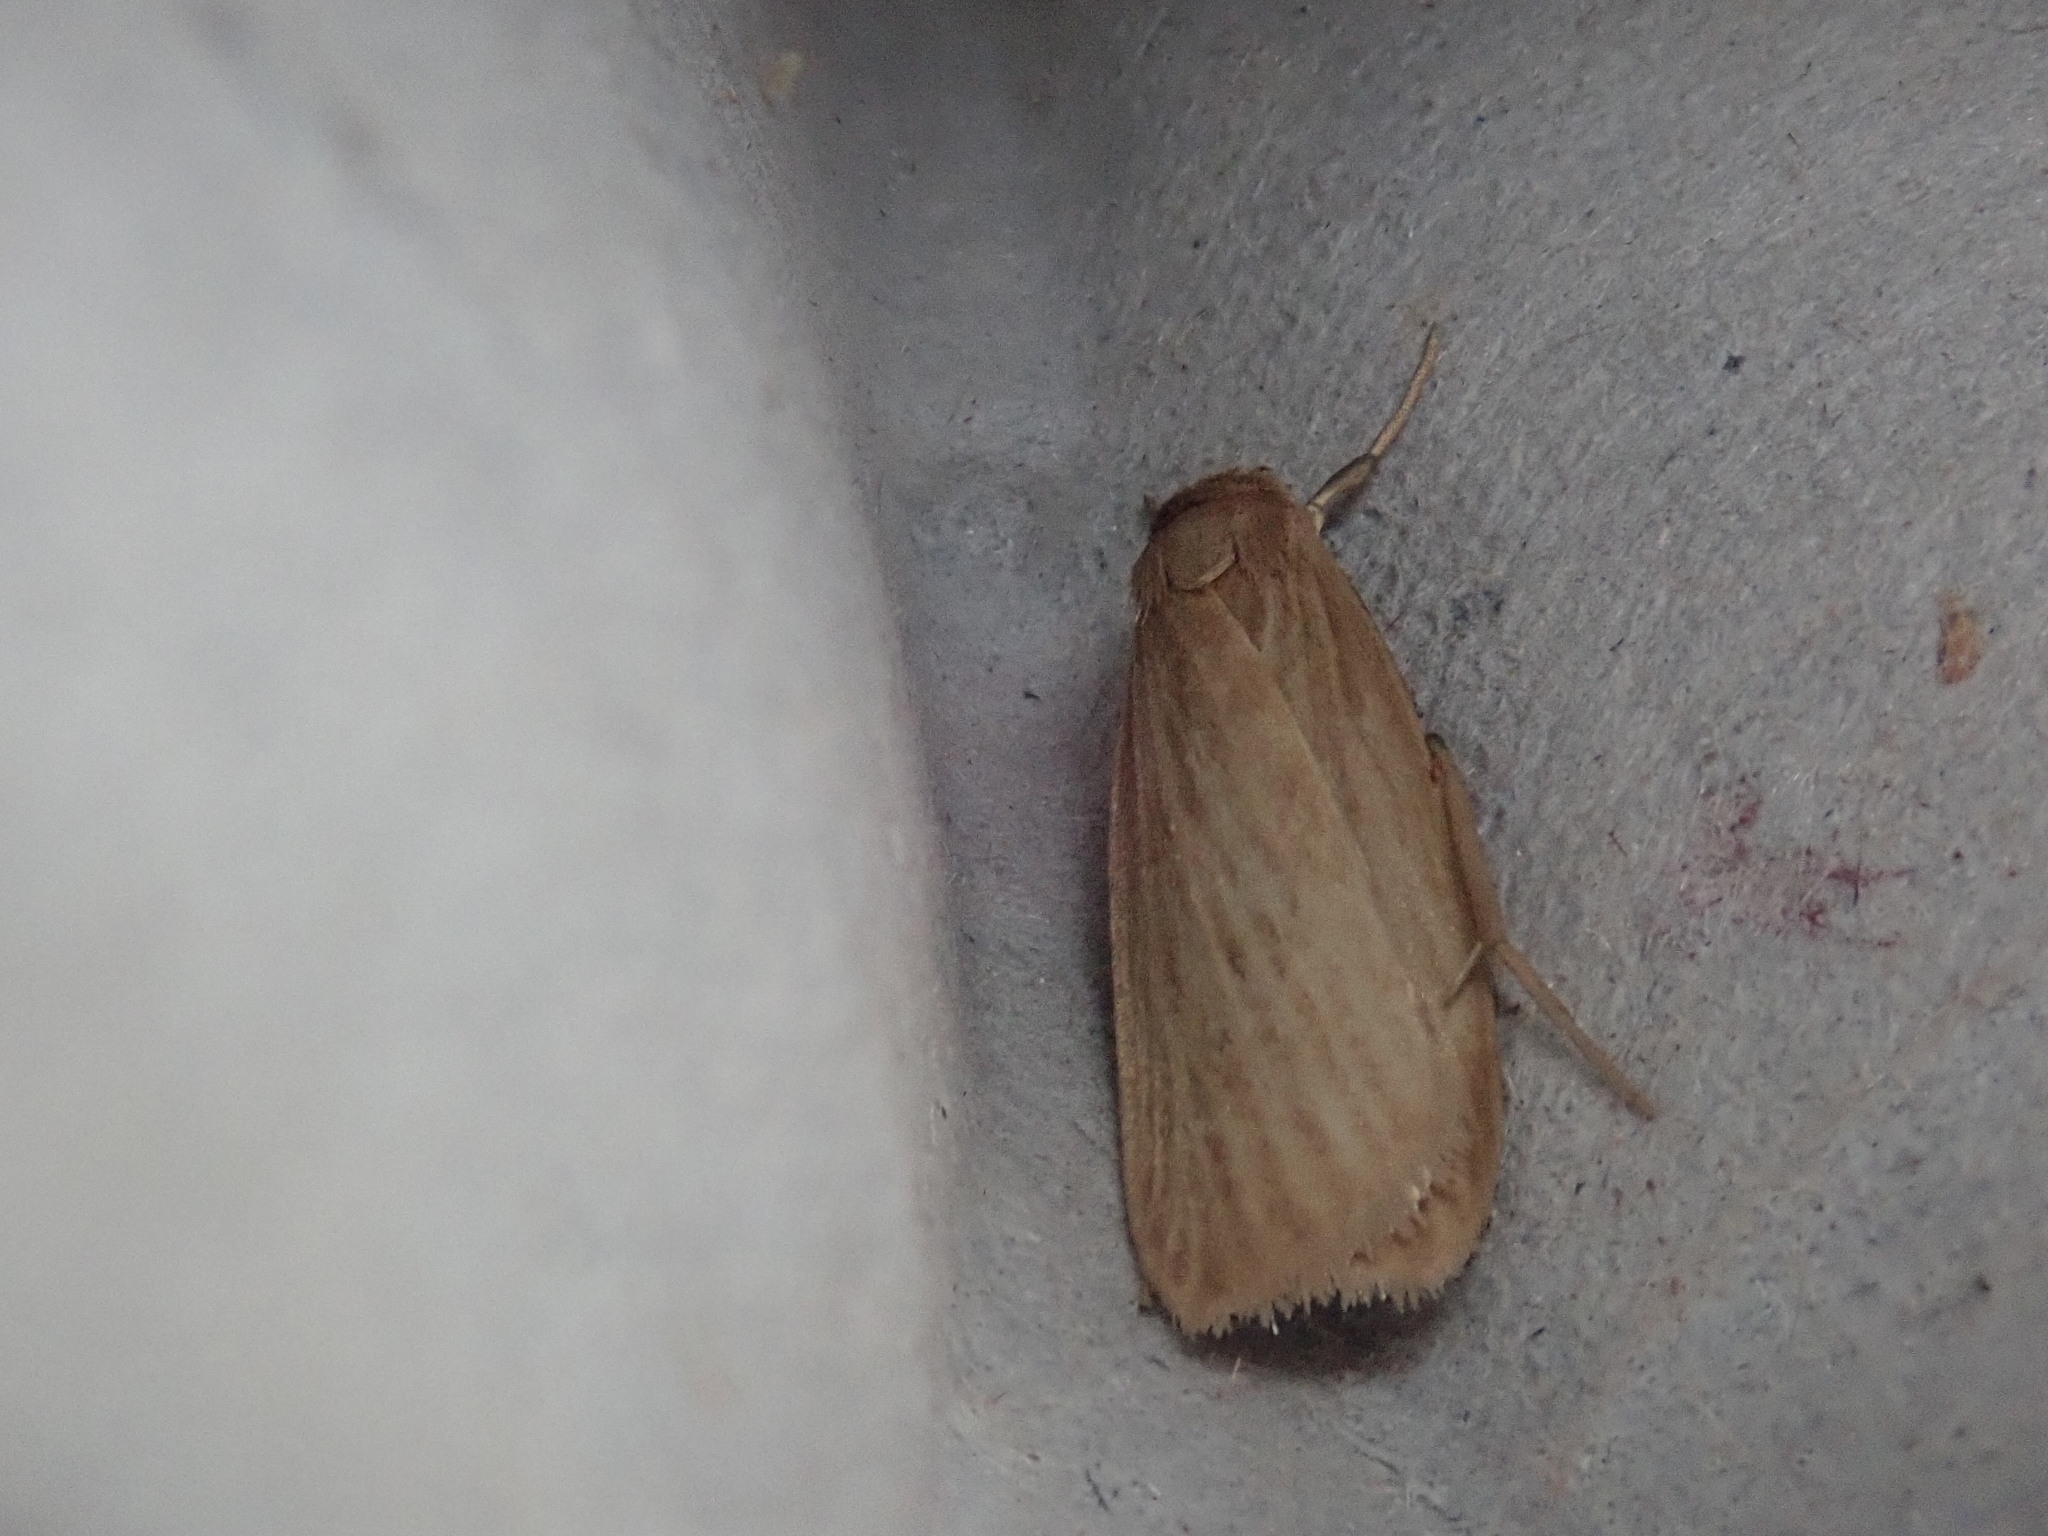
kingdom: Animalia
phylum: Arthropoda
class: Insecta
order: Lepidoptera
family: Erebidae
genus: Crambidia
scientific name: Crambidia pallida
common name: Pale lichen moth
